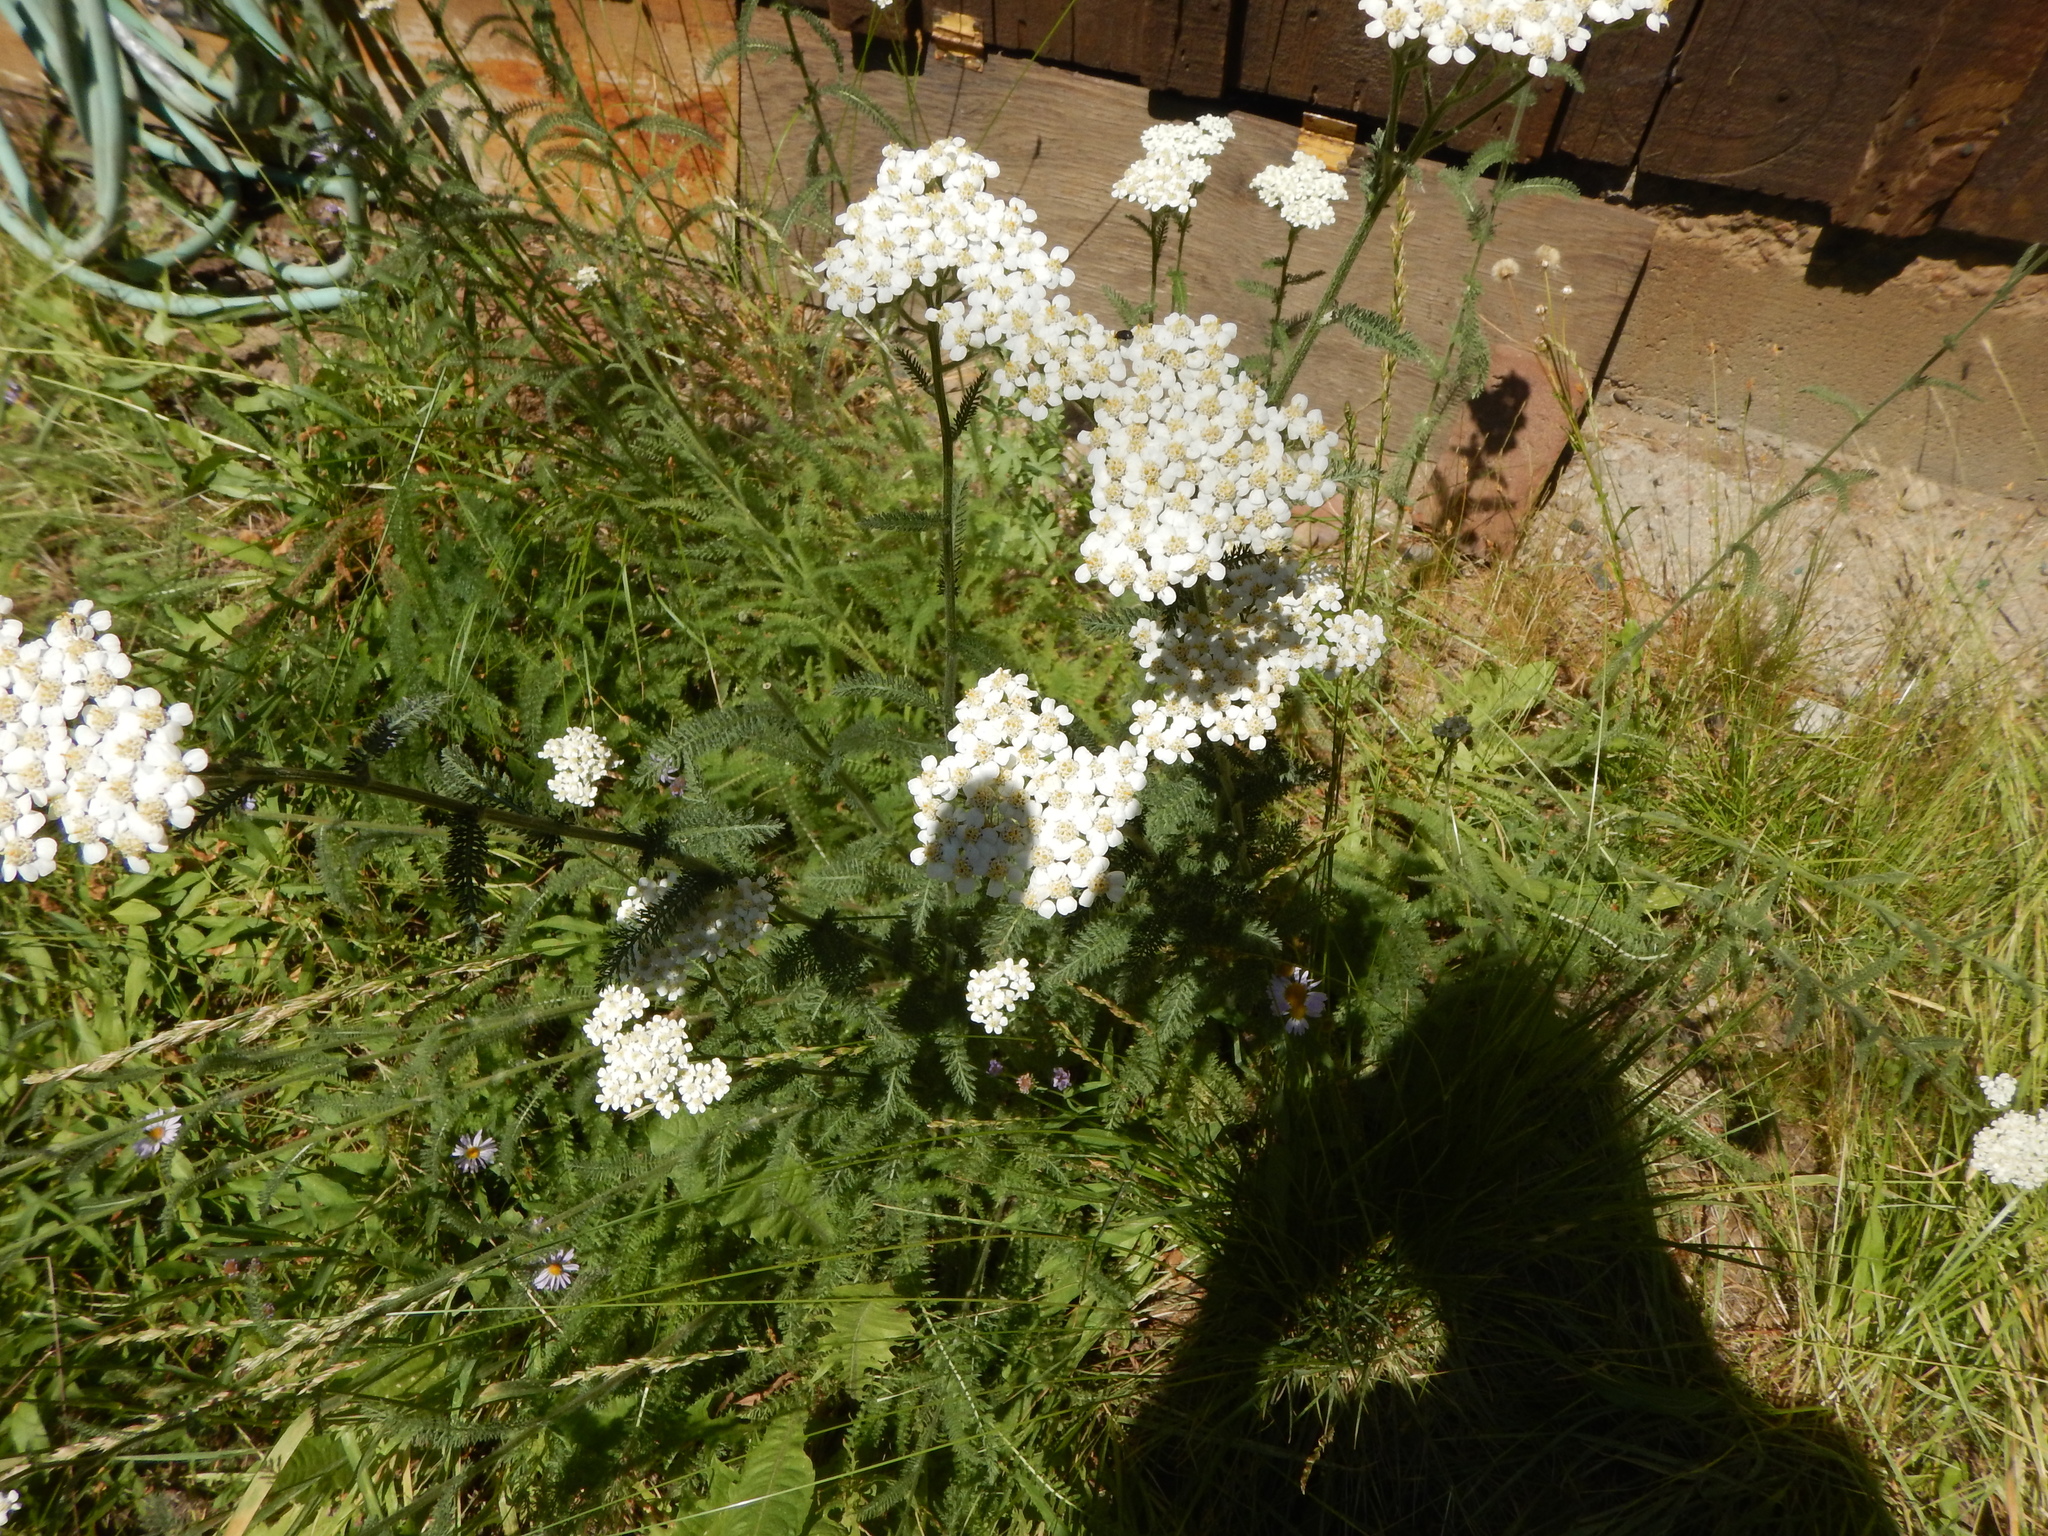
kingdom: Plantae
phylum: Tracheophyta
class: Magnoliopsida
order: Asterales
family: Asteraceae
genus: Achillea
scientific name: Achillea millefolium
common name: Yarrow
